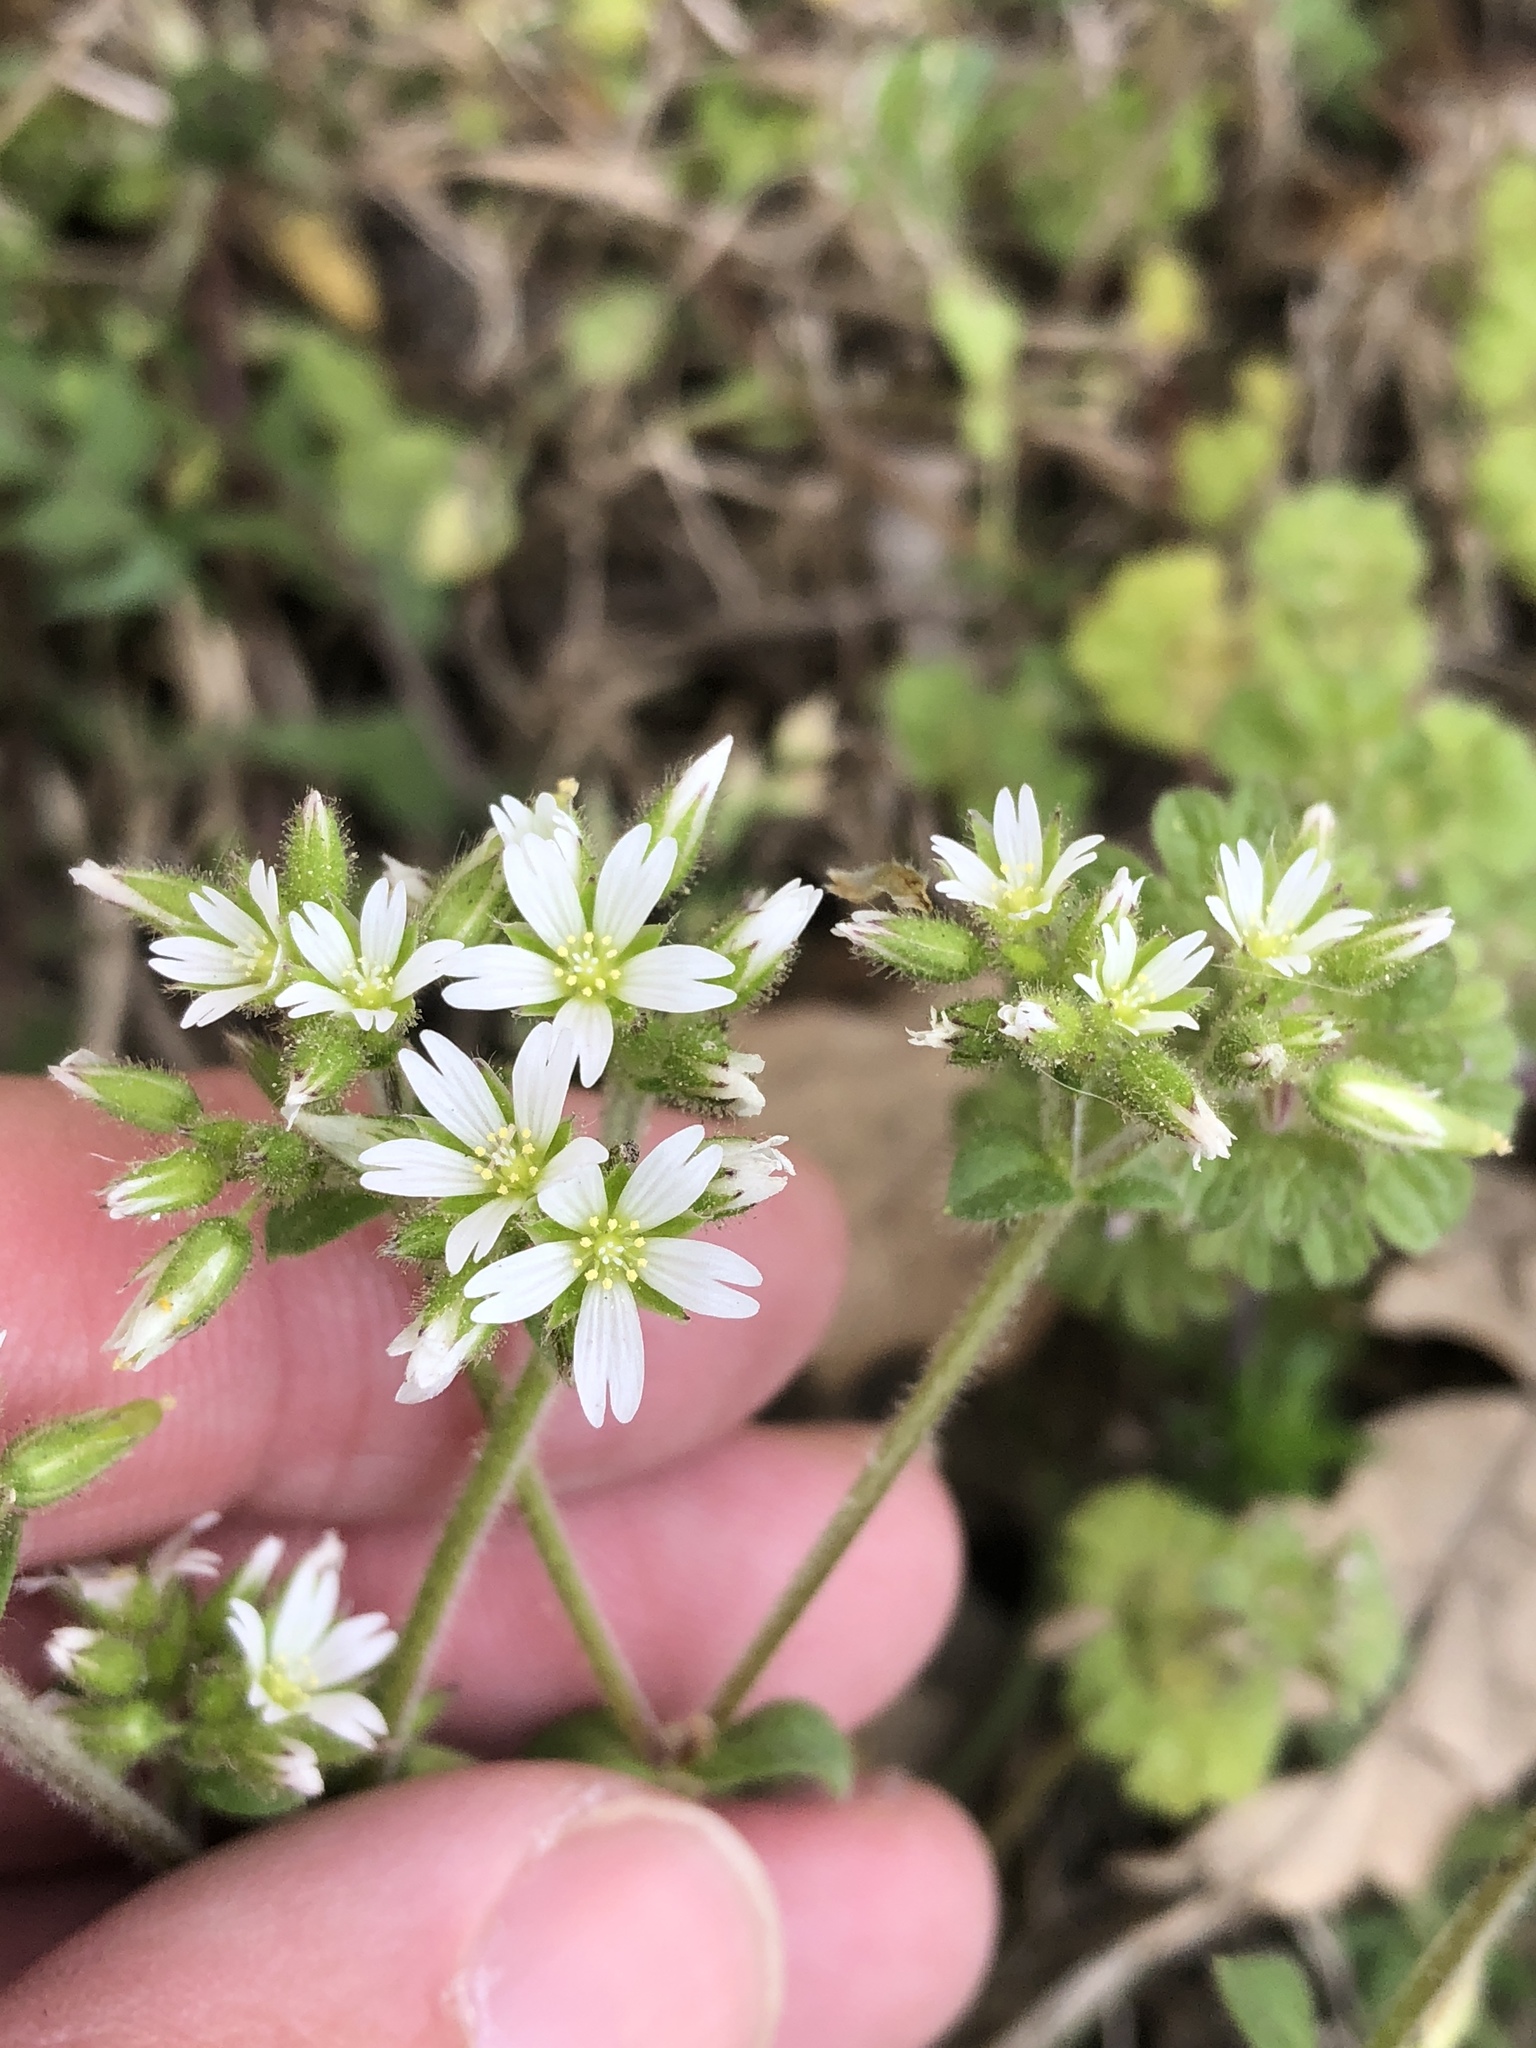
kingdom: Plantae
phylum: Tracheophyta
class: Magnoliopsida
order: Caryophyllales
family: Caryophyllaceae
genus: Cerastium
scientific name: Cerastium glomeratum
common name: Sticky chickweed
